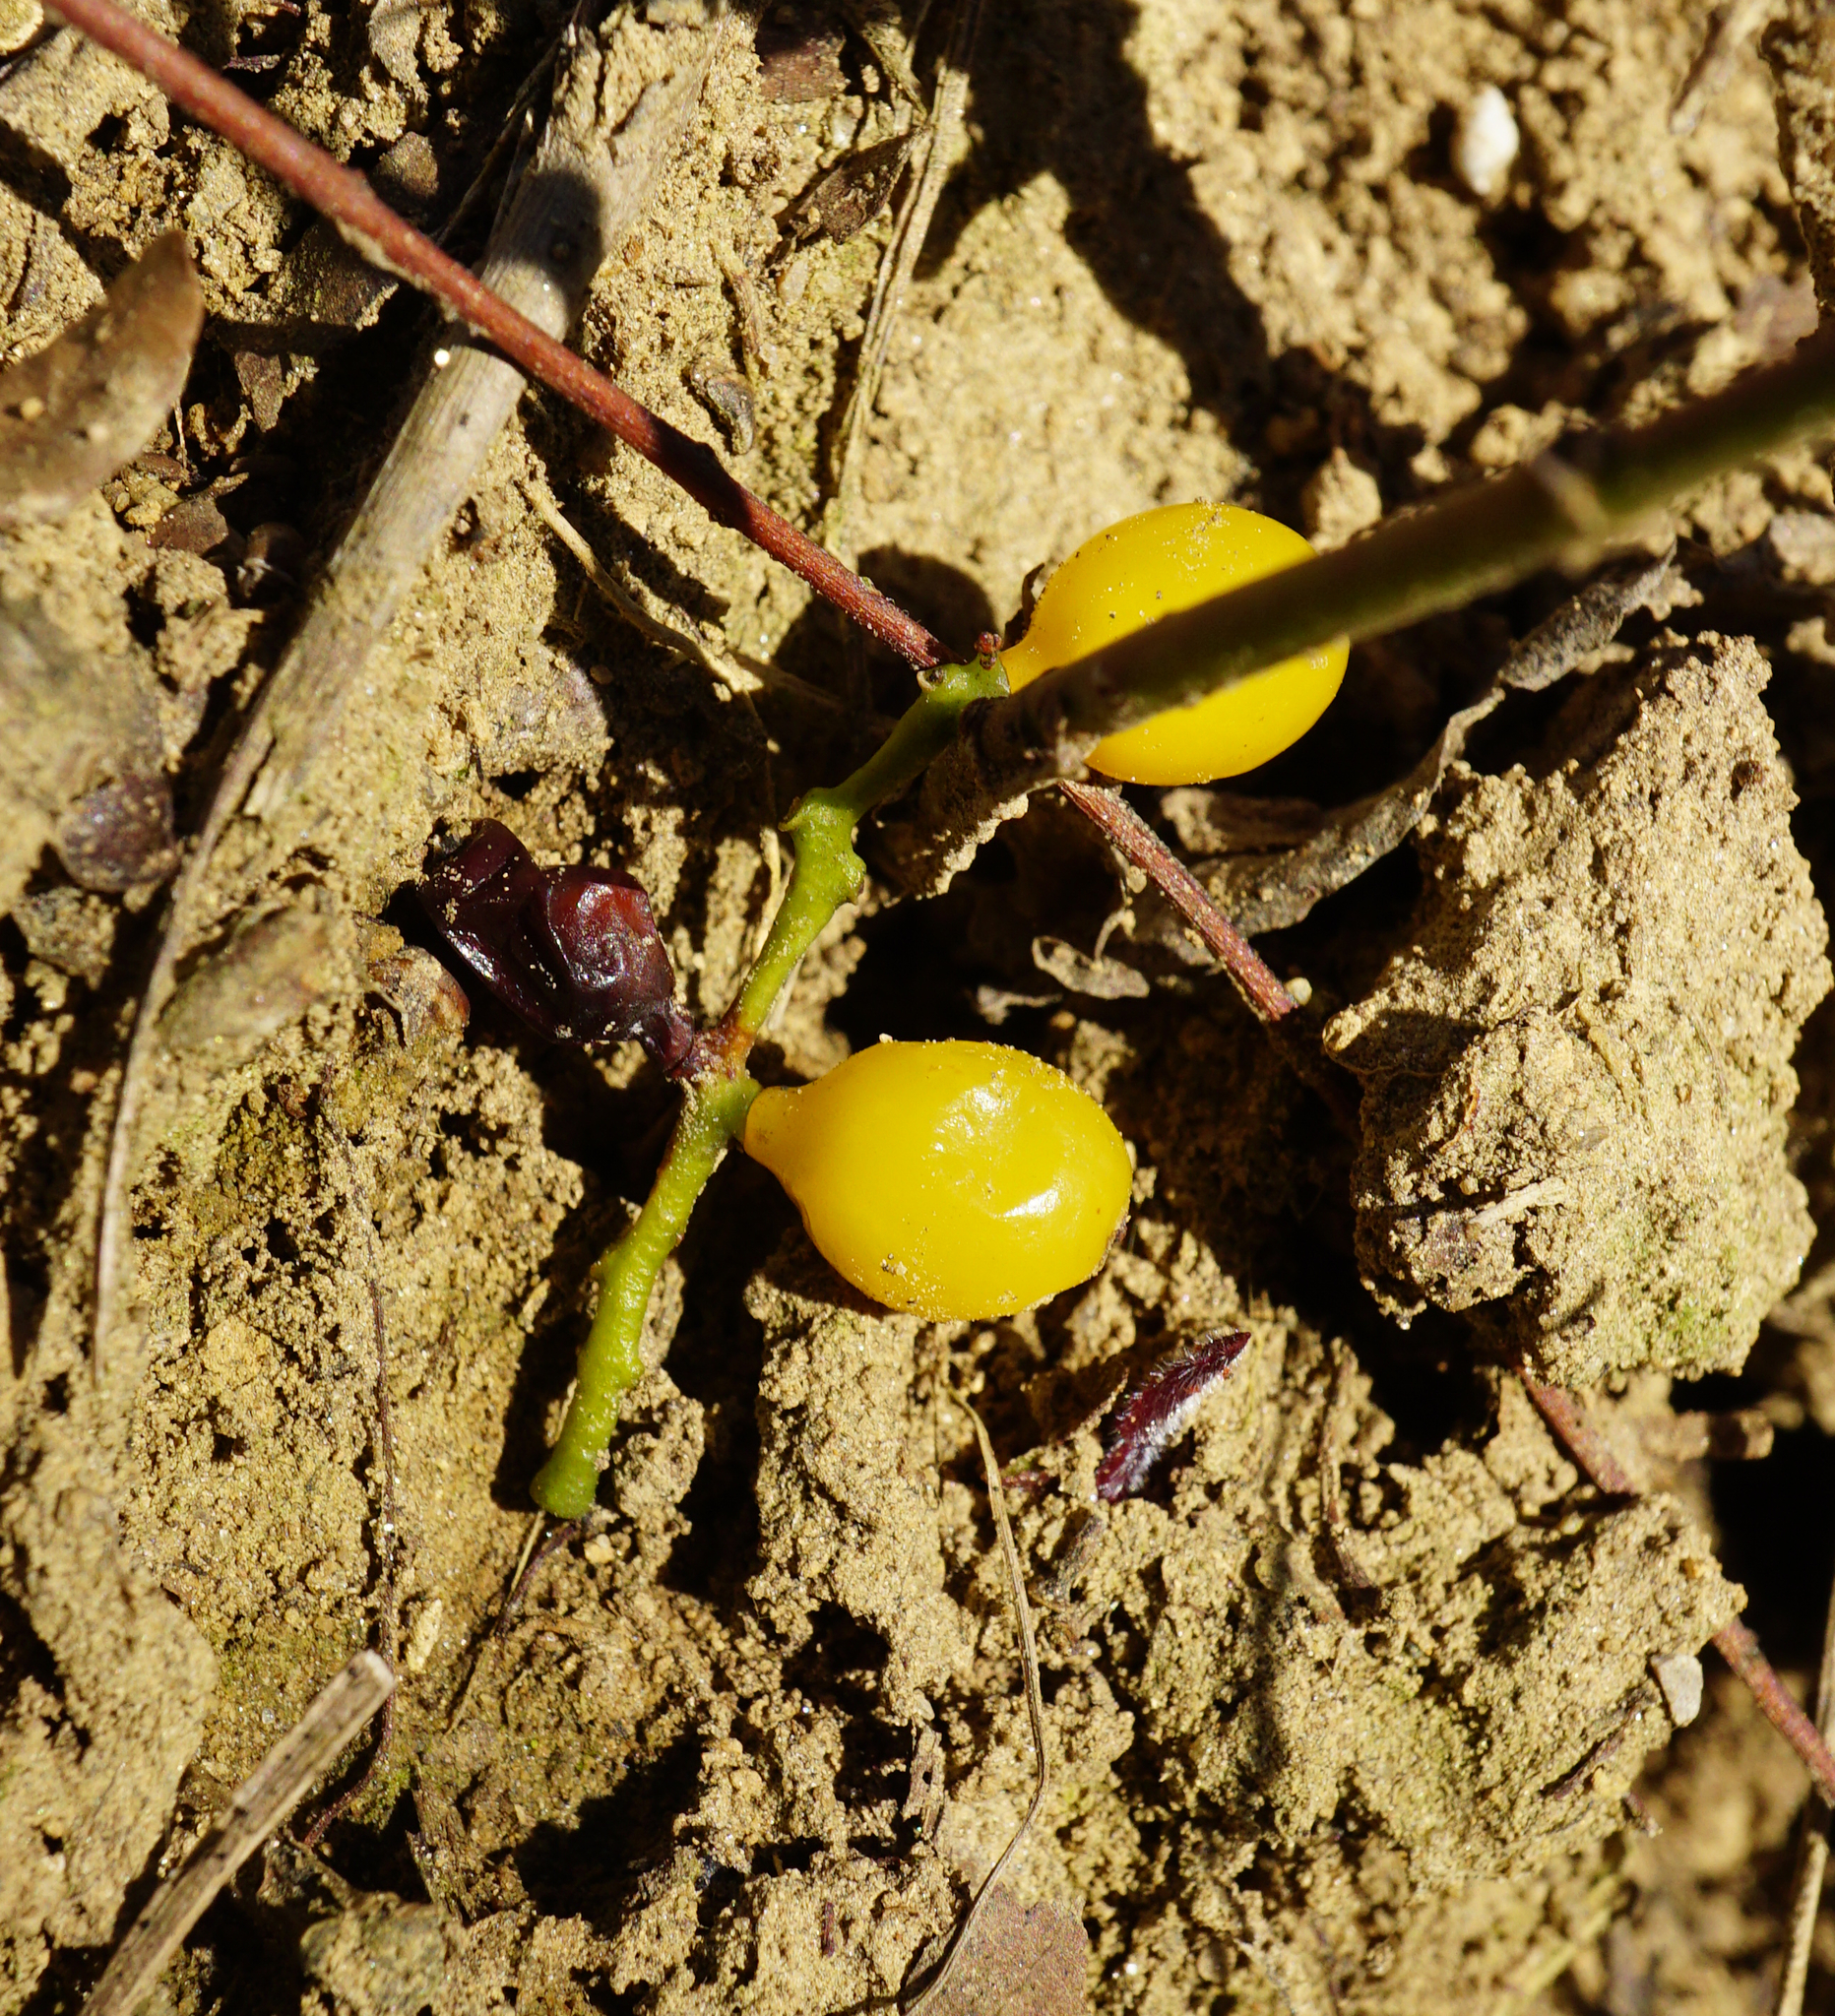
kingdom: Plantae
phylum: Tracheophyta
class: Magnoliopsida
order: Santalales
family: Loranthaceae
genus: Loranthus
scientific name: Loranthus europaeus
